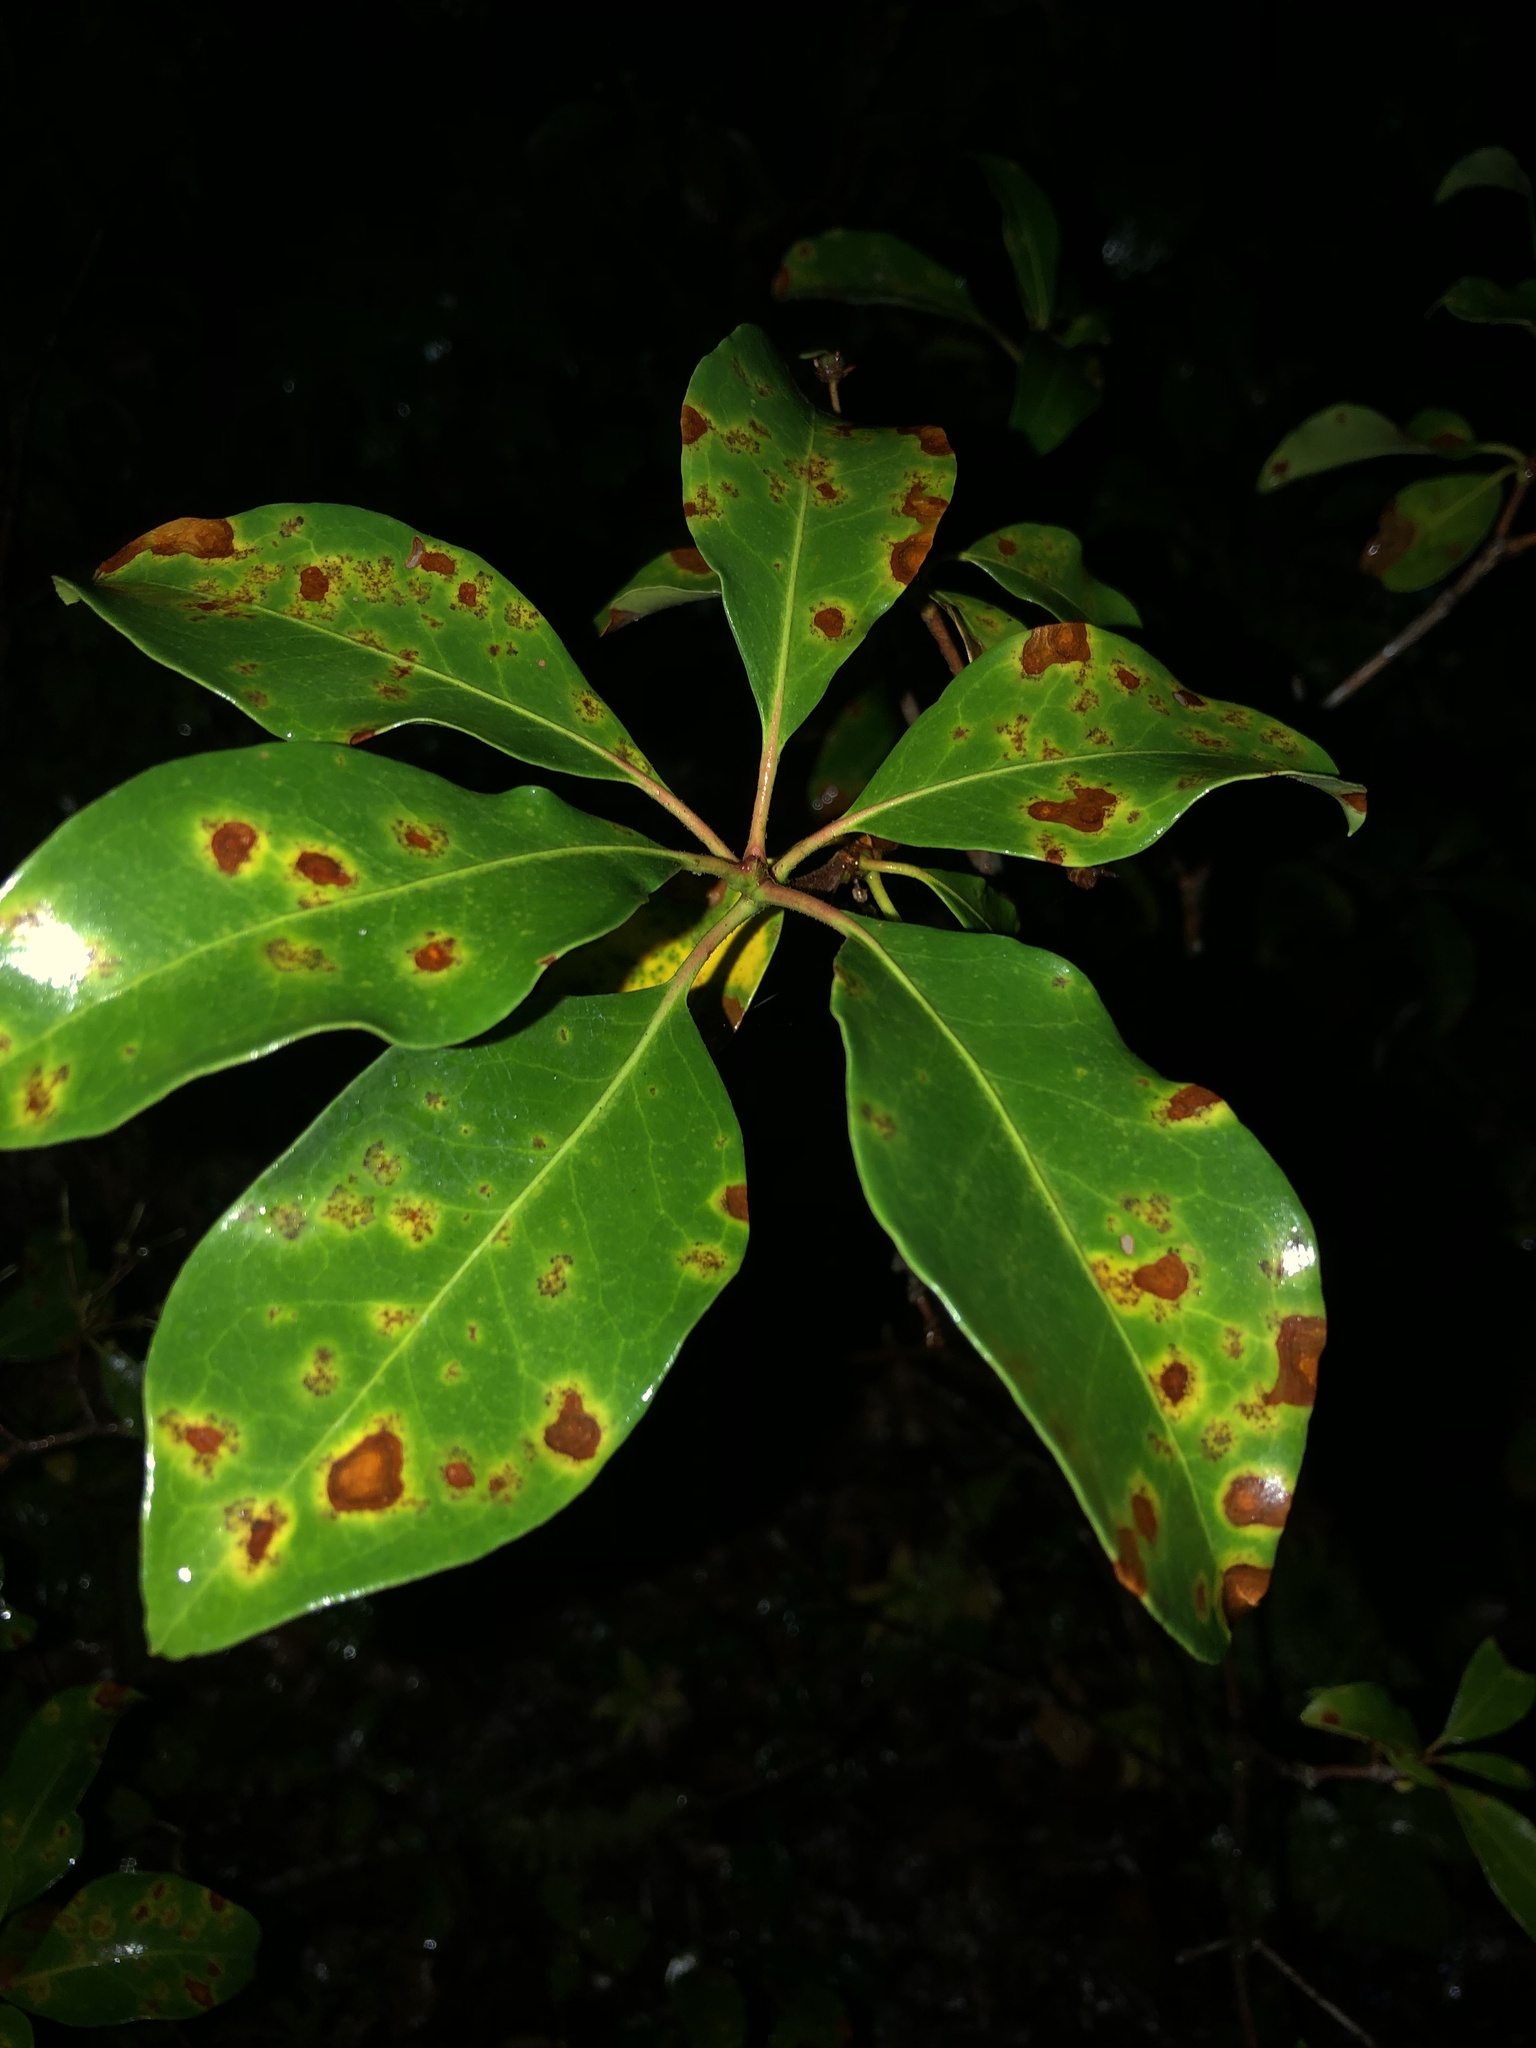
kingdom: Plantae
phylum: Tracheophyta
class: Magnoliopsida
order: Ericales
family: Ericaceae
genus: Kalmia
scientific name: Kalmia latifolia
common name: Mountain-laurel
